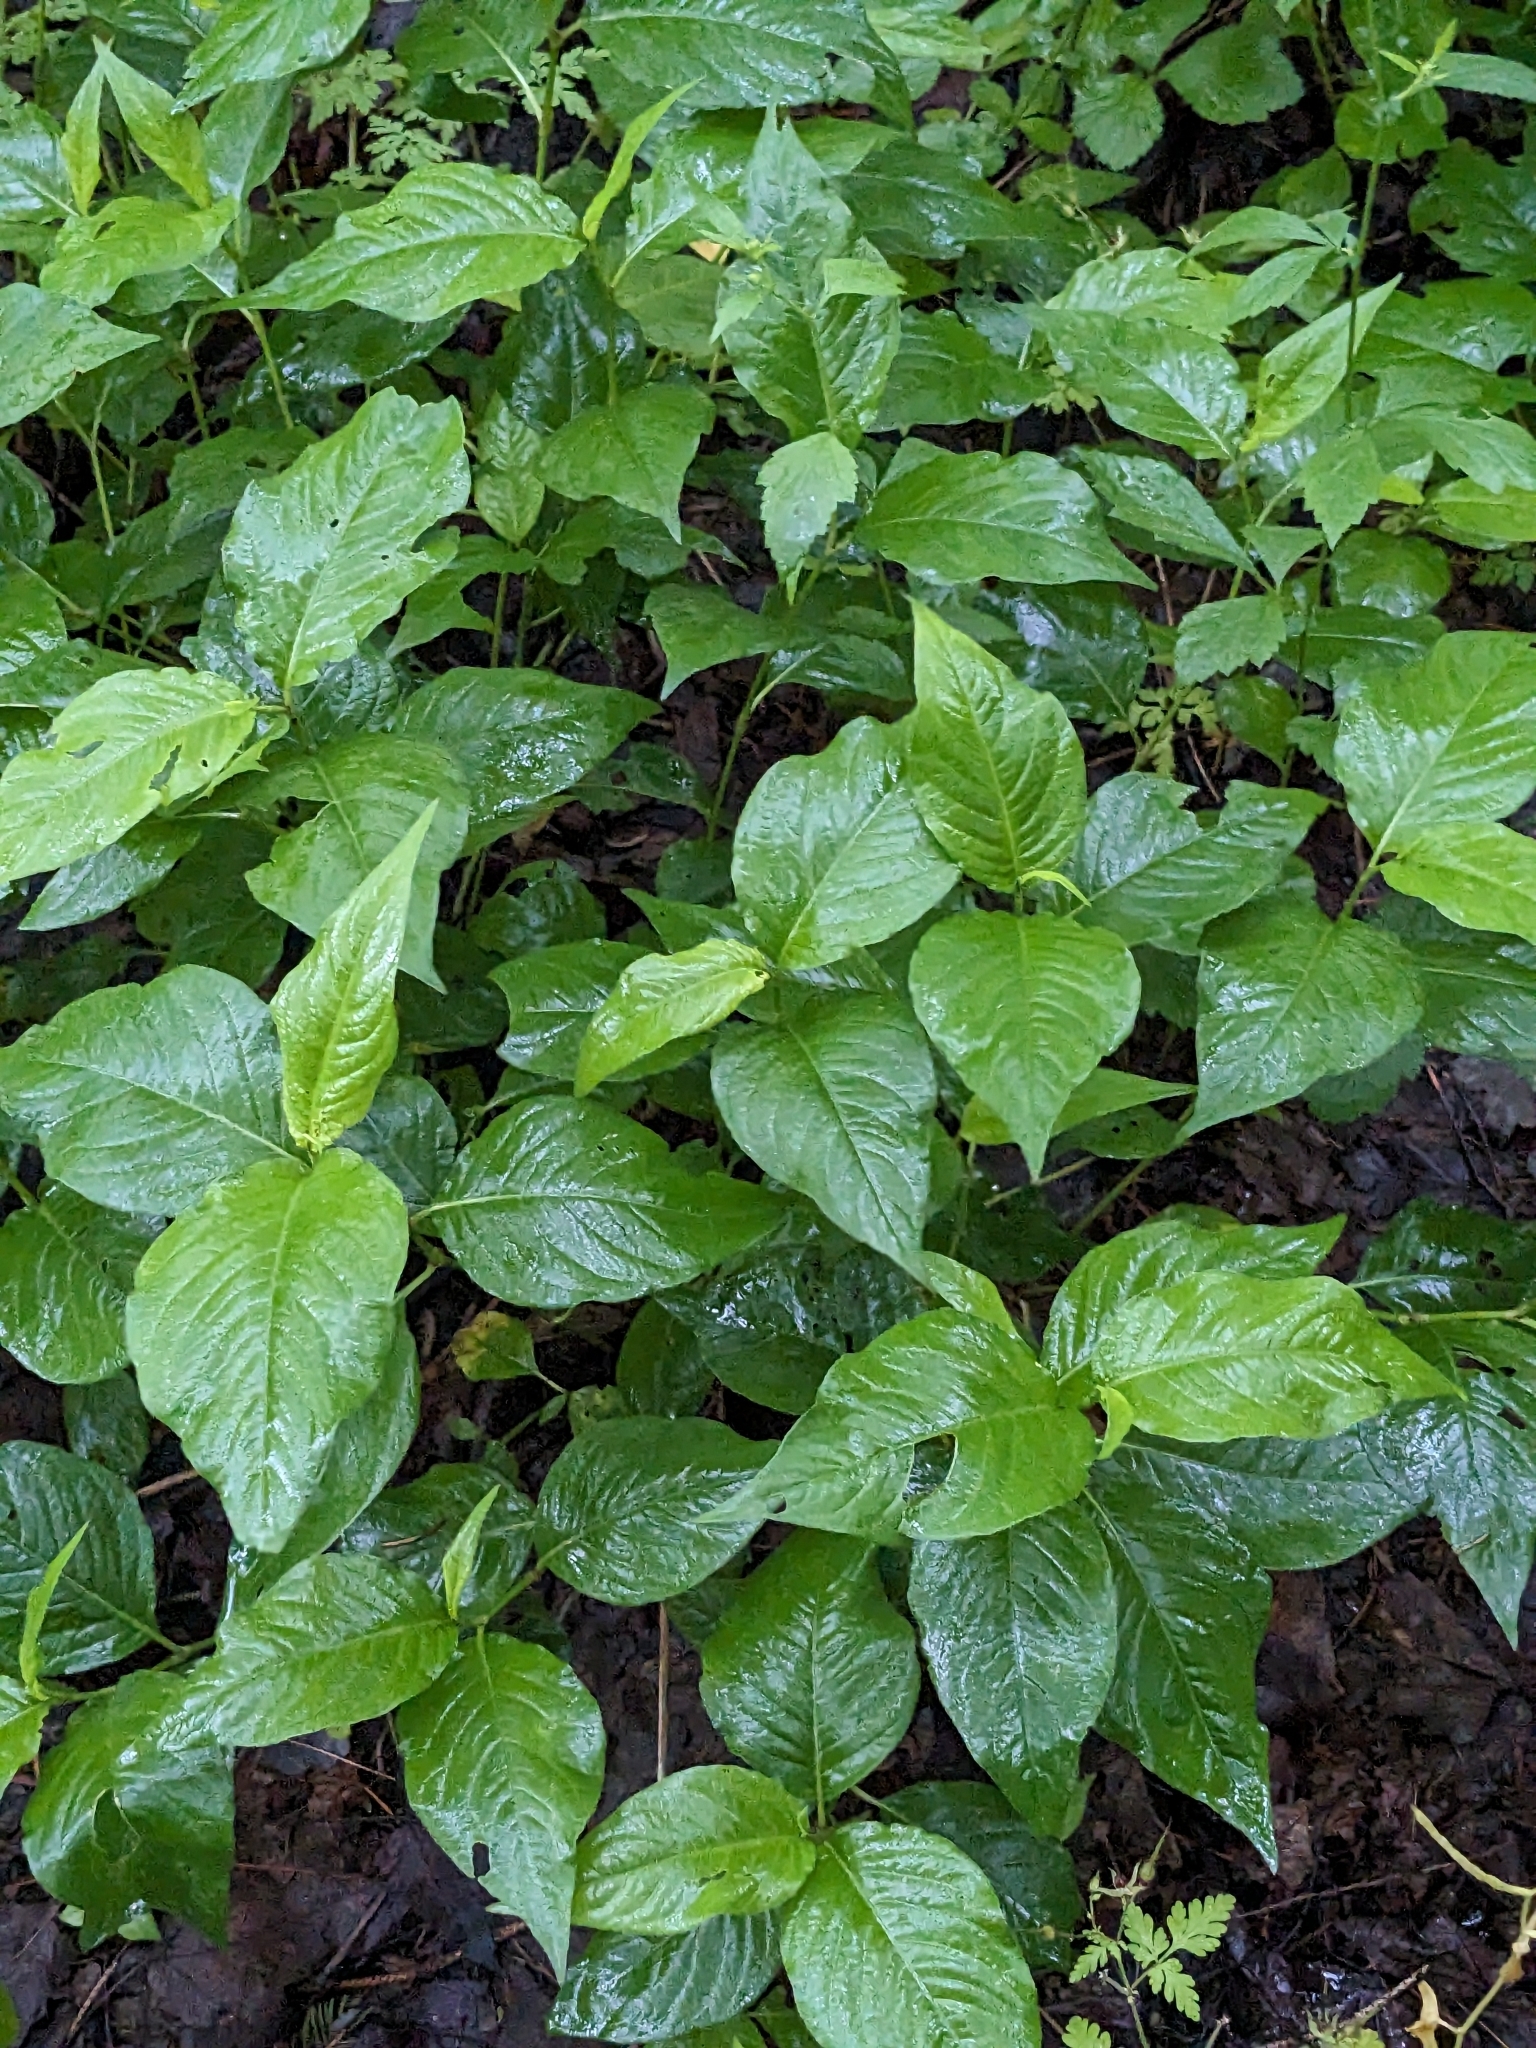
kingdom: Plantae
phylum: Tracheophyta
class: Magnoliopsida
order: Caryophyllales
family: Polygonaceae
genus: Persicaria
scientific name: Persicaria virginiana
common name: Jumpseed
